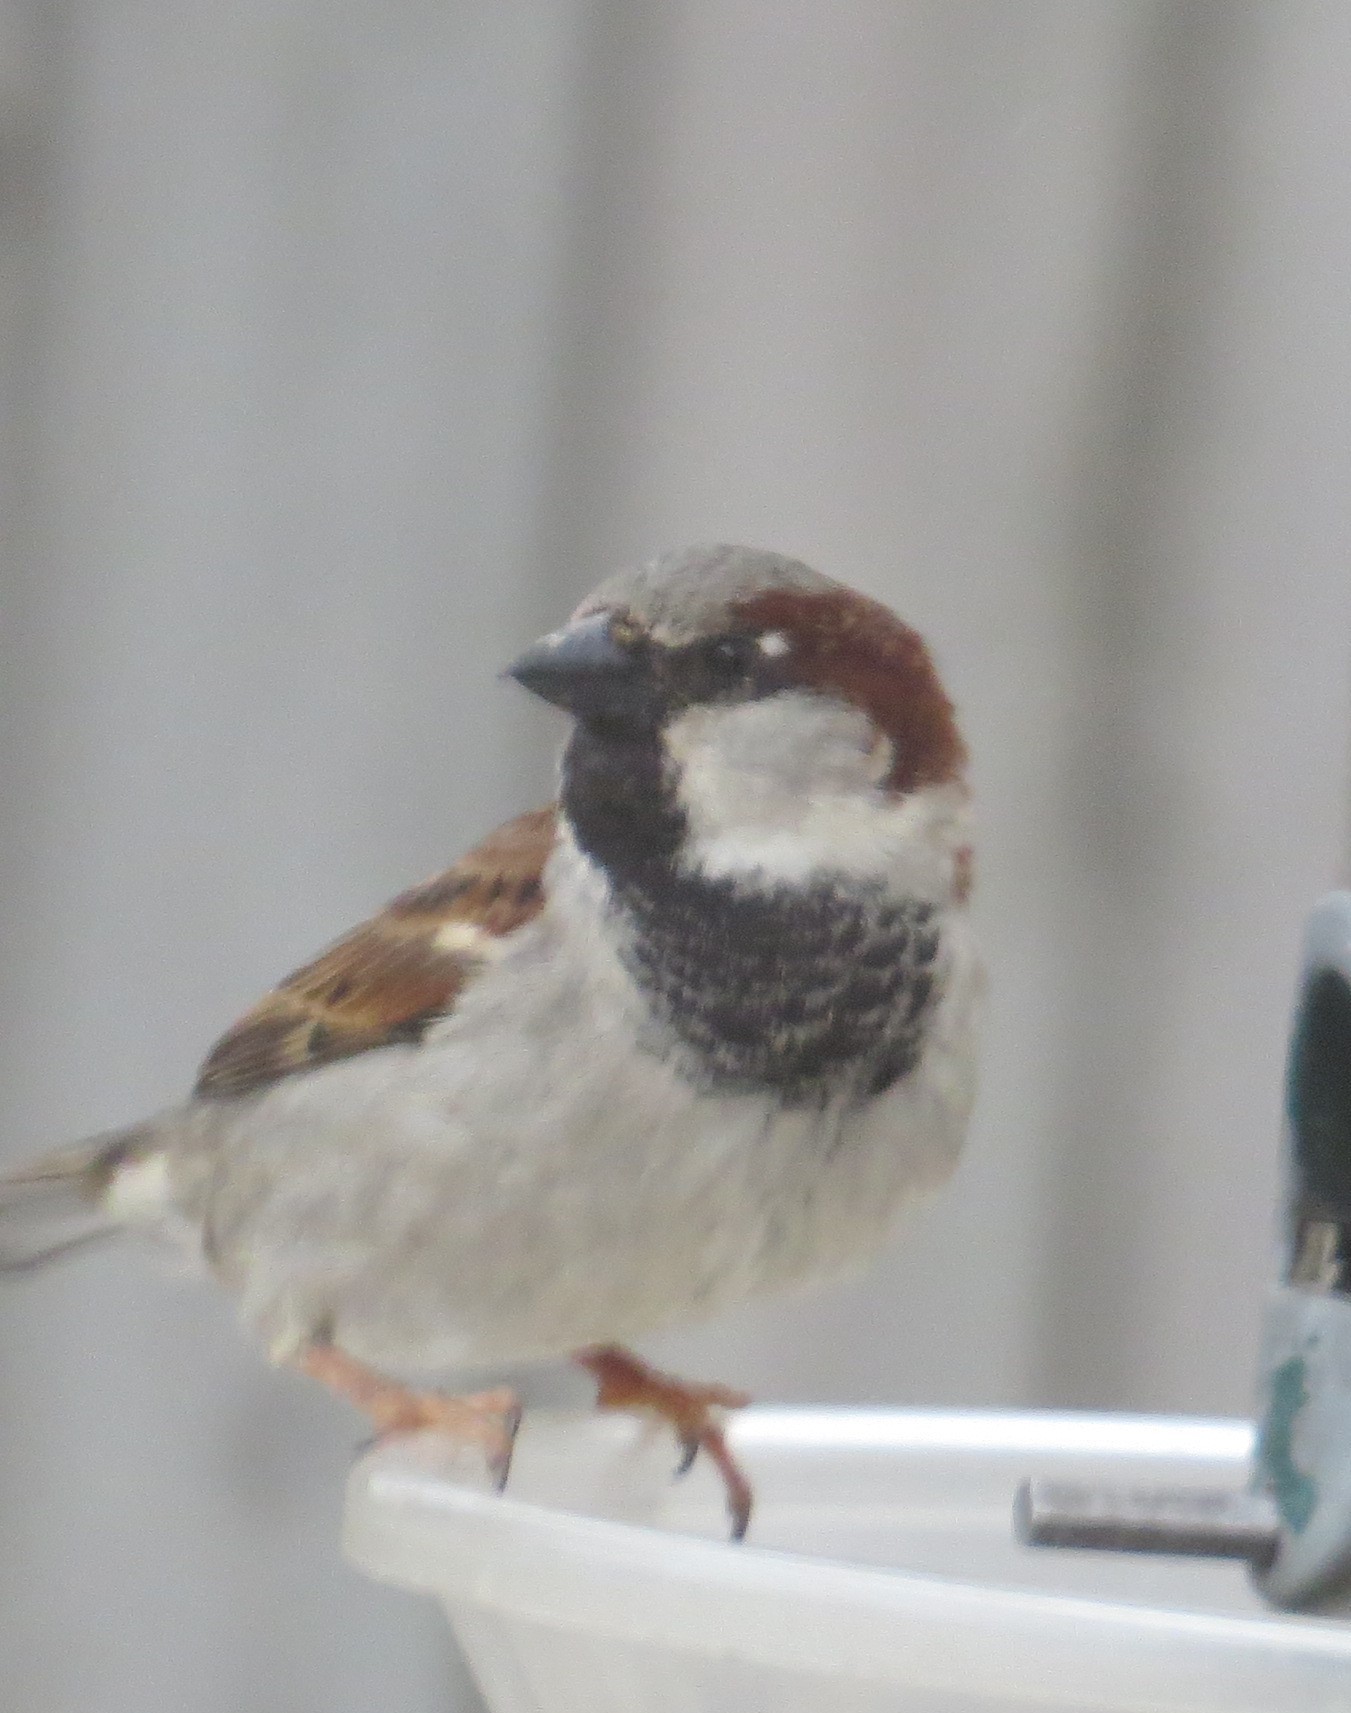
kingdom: Animalia
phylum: Chordata
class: Aves
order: Passeriformes
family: Passeridae
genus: Passer
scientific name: Passer domesticus
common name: House sparrow
